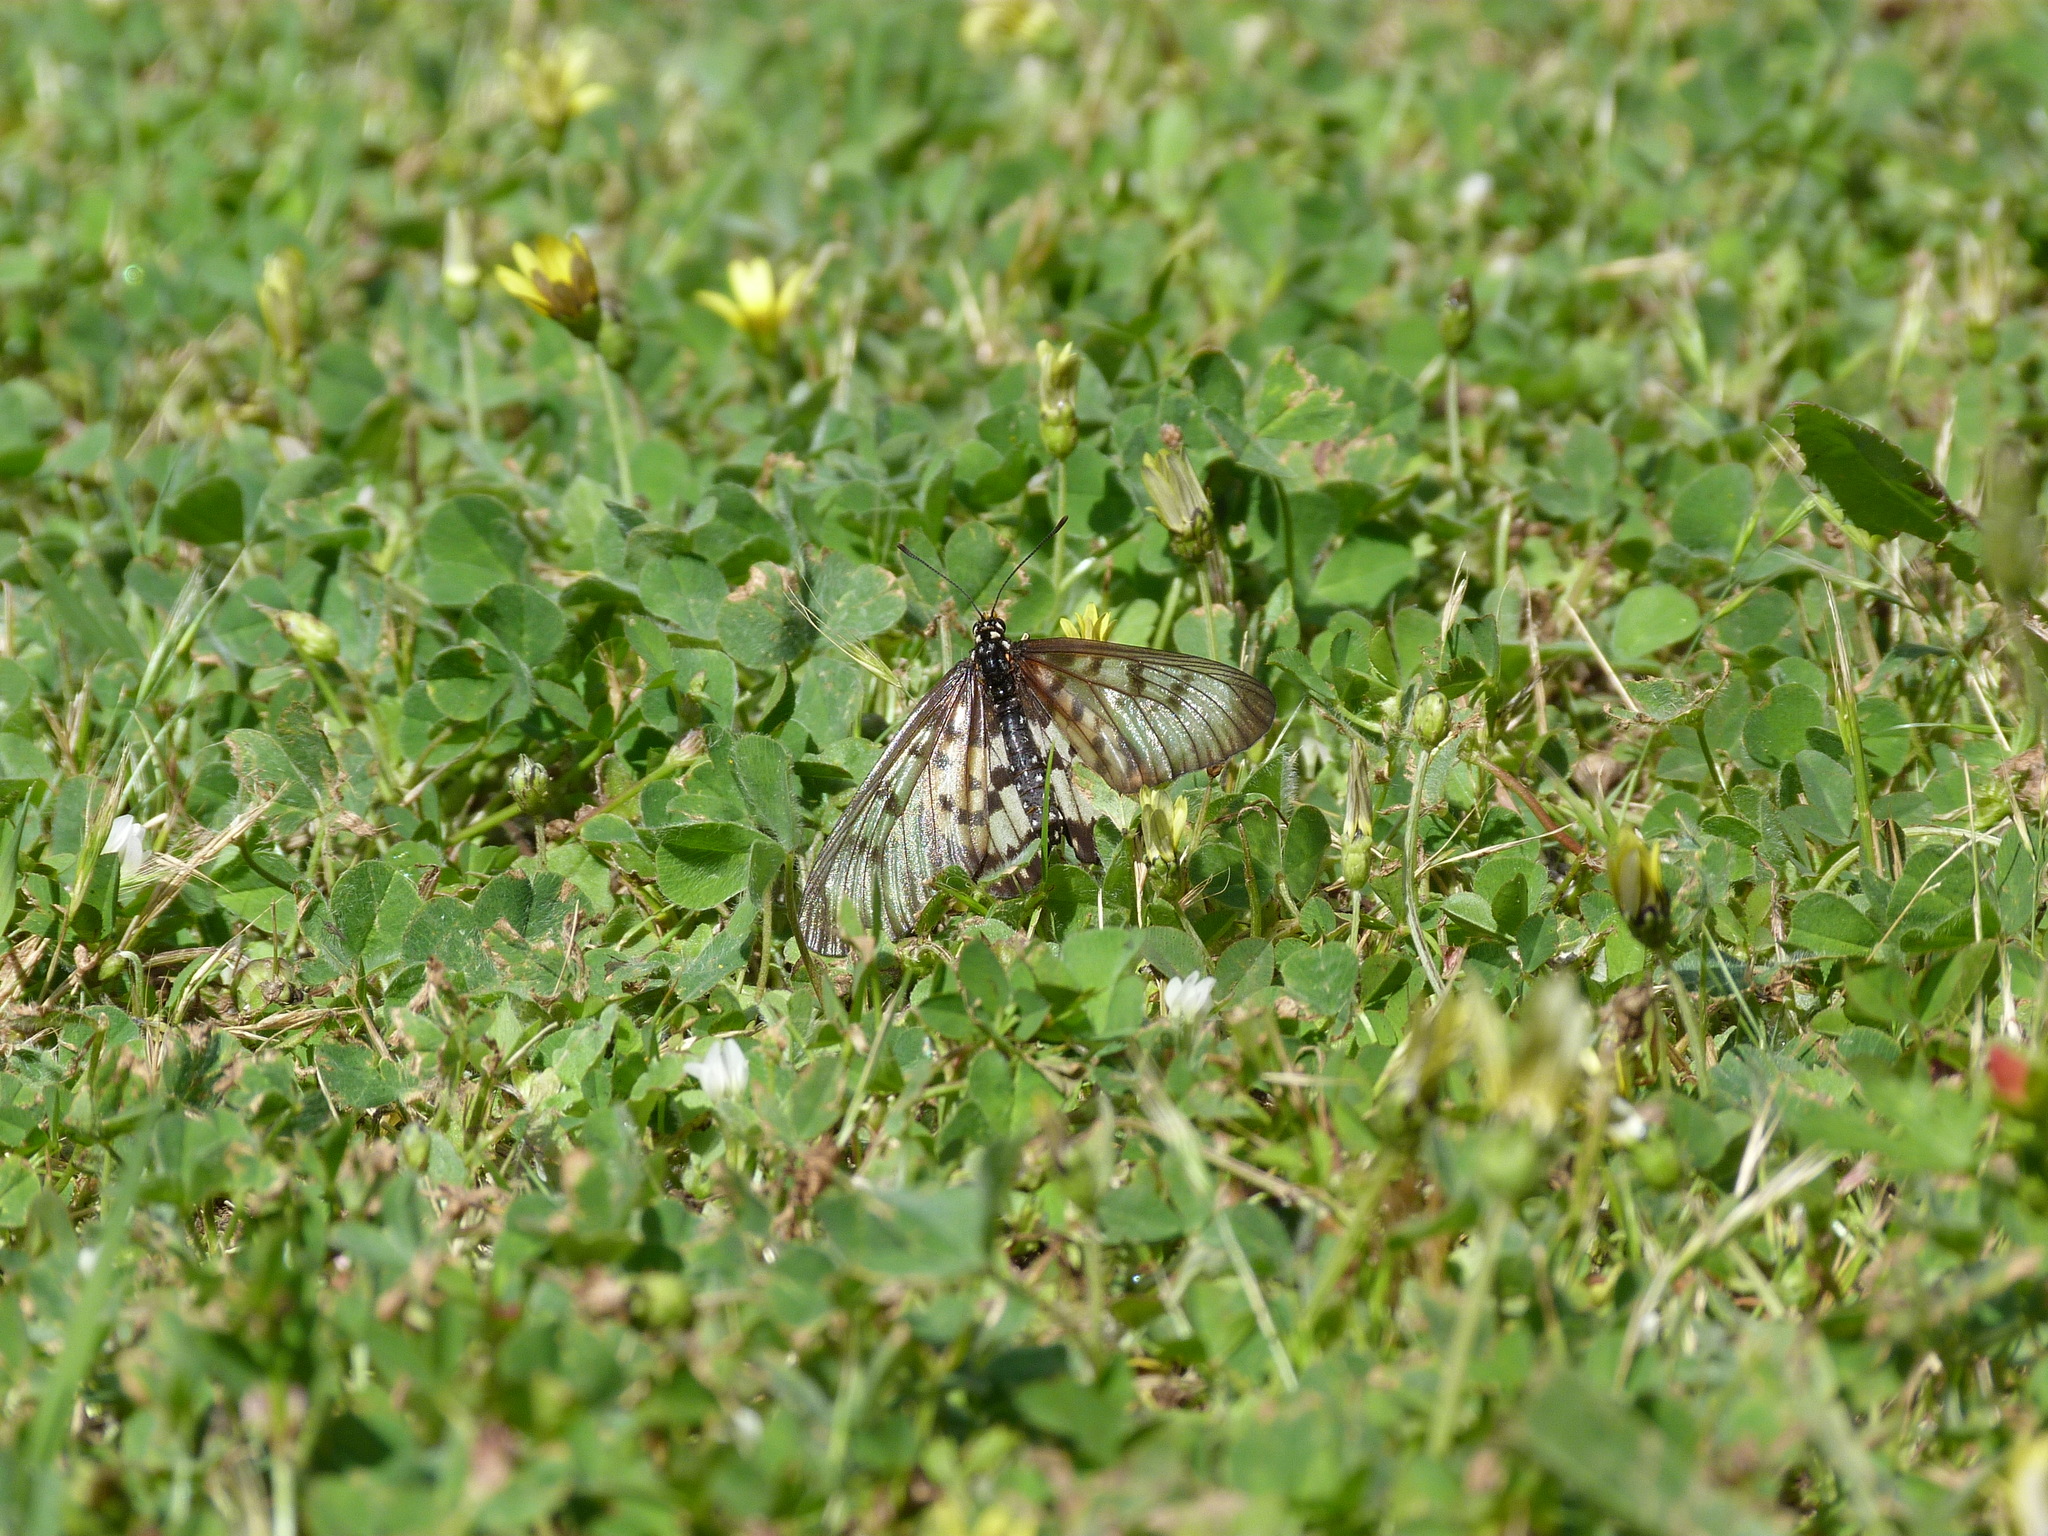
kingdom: Animalia
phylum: Arthropoda
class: Insecta
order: Lepidoptera
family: Nymphalidae
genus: Acraea
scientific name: Acraea andromacha
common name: Glasswing
